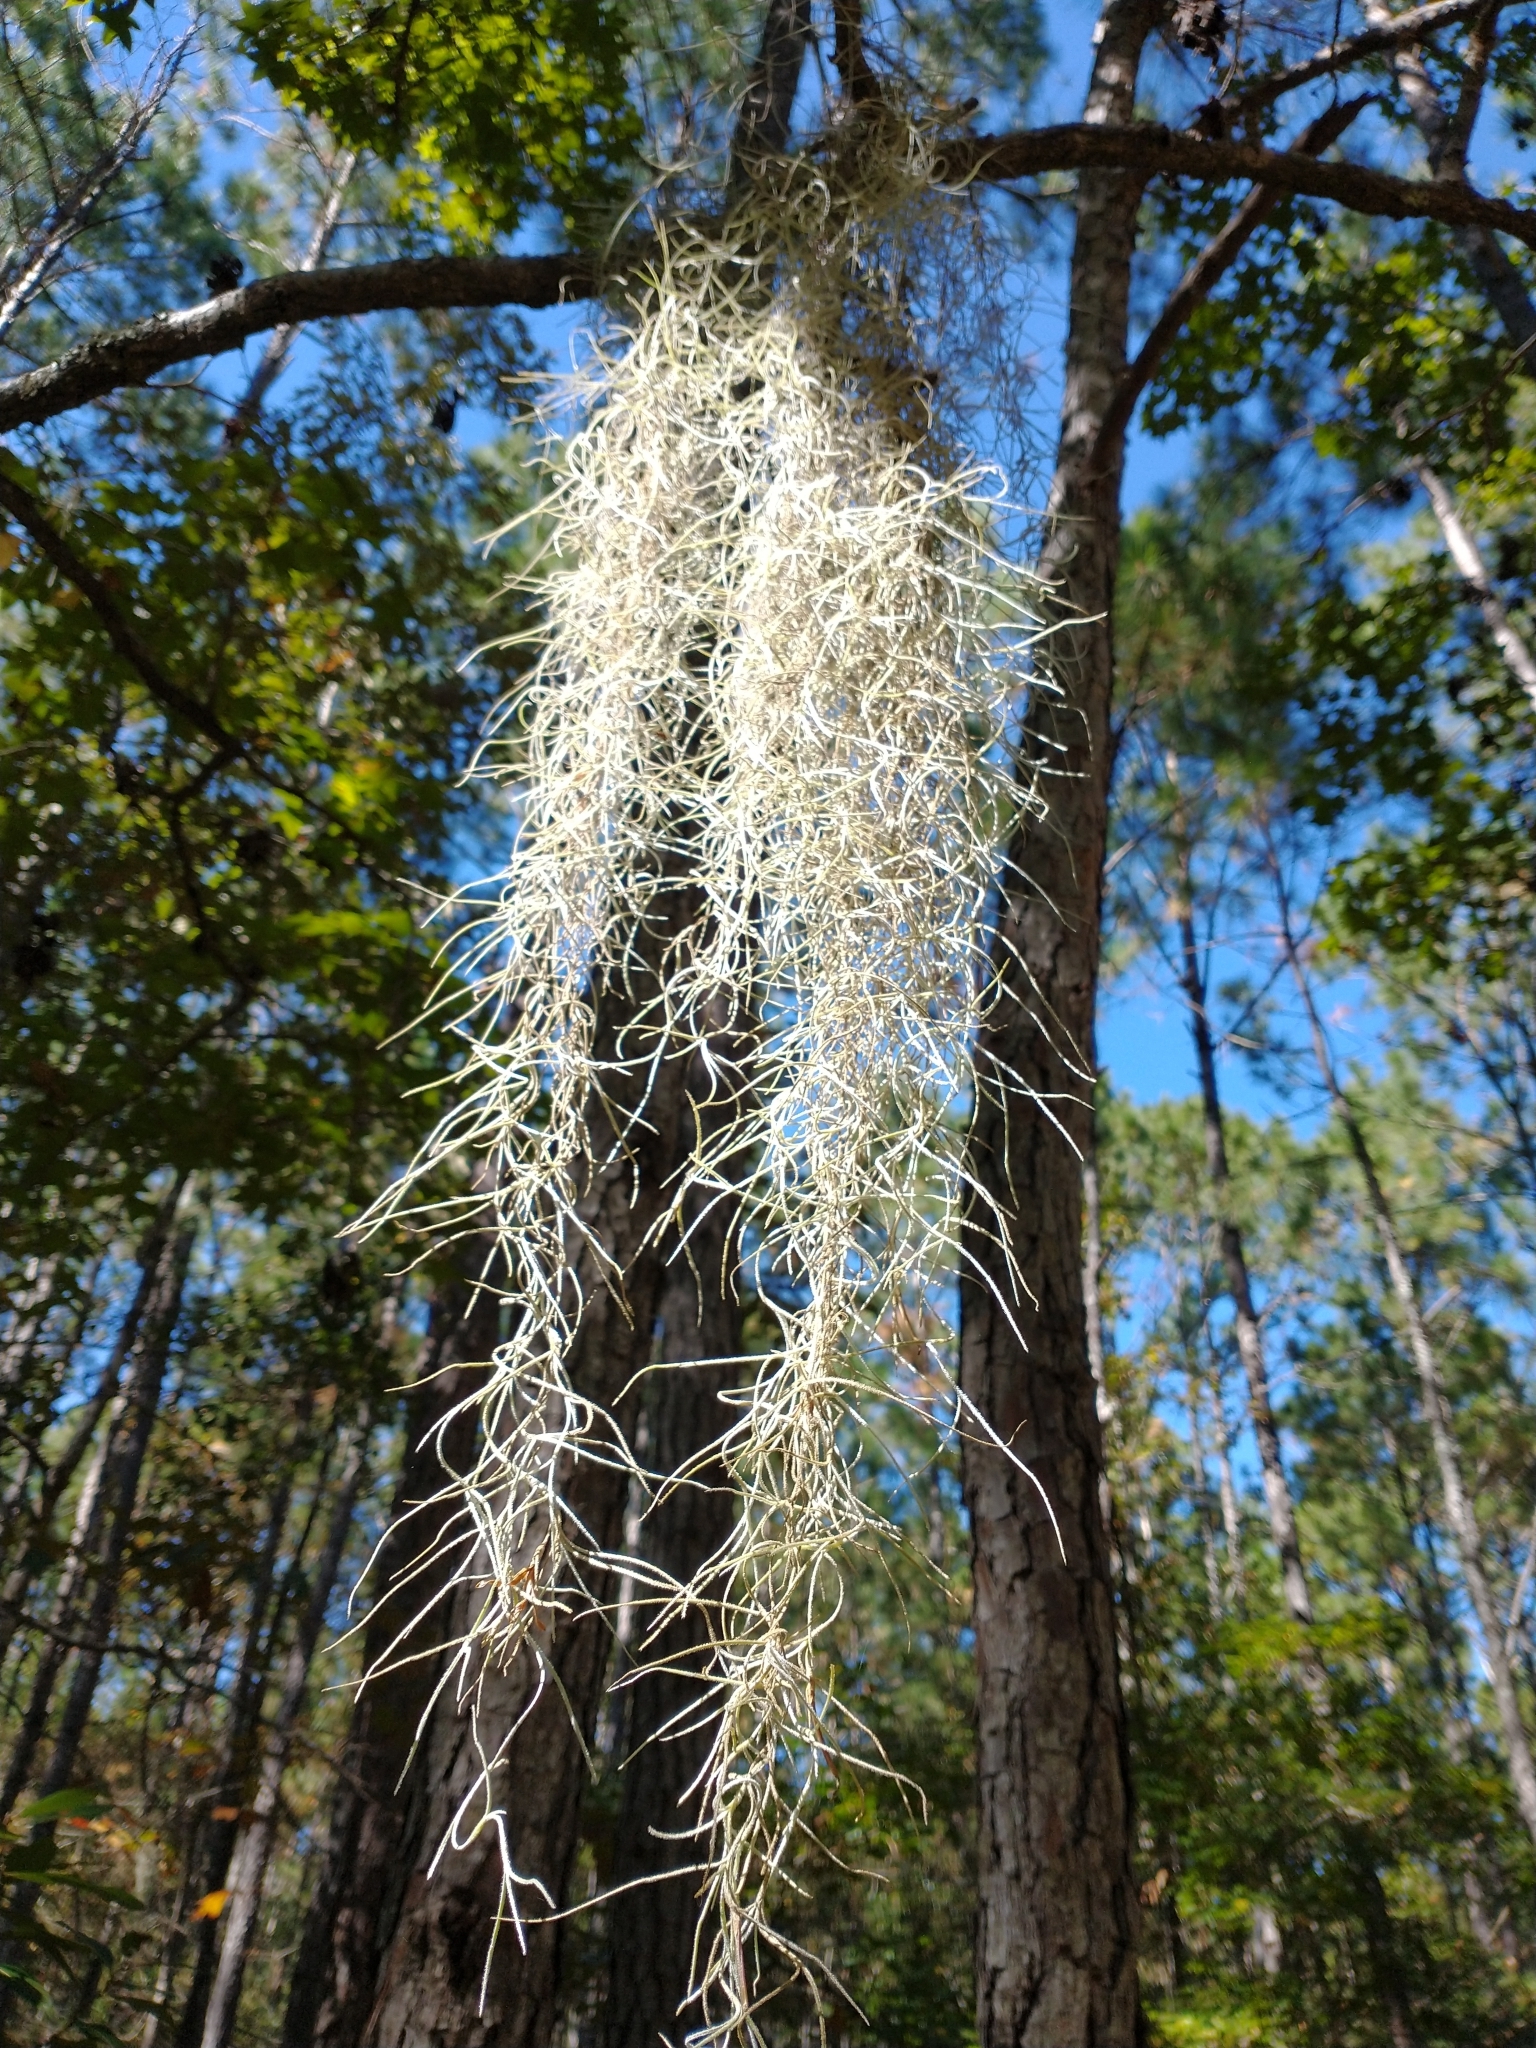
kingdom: Plantae
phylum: Tracheophyta
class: Liliopsida
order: Poales
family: Bromeliaceae
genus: Tillandsia
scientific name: Tillandsia usneoides
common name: Spanish moss
